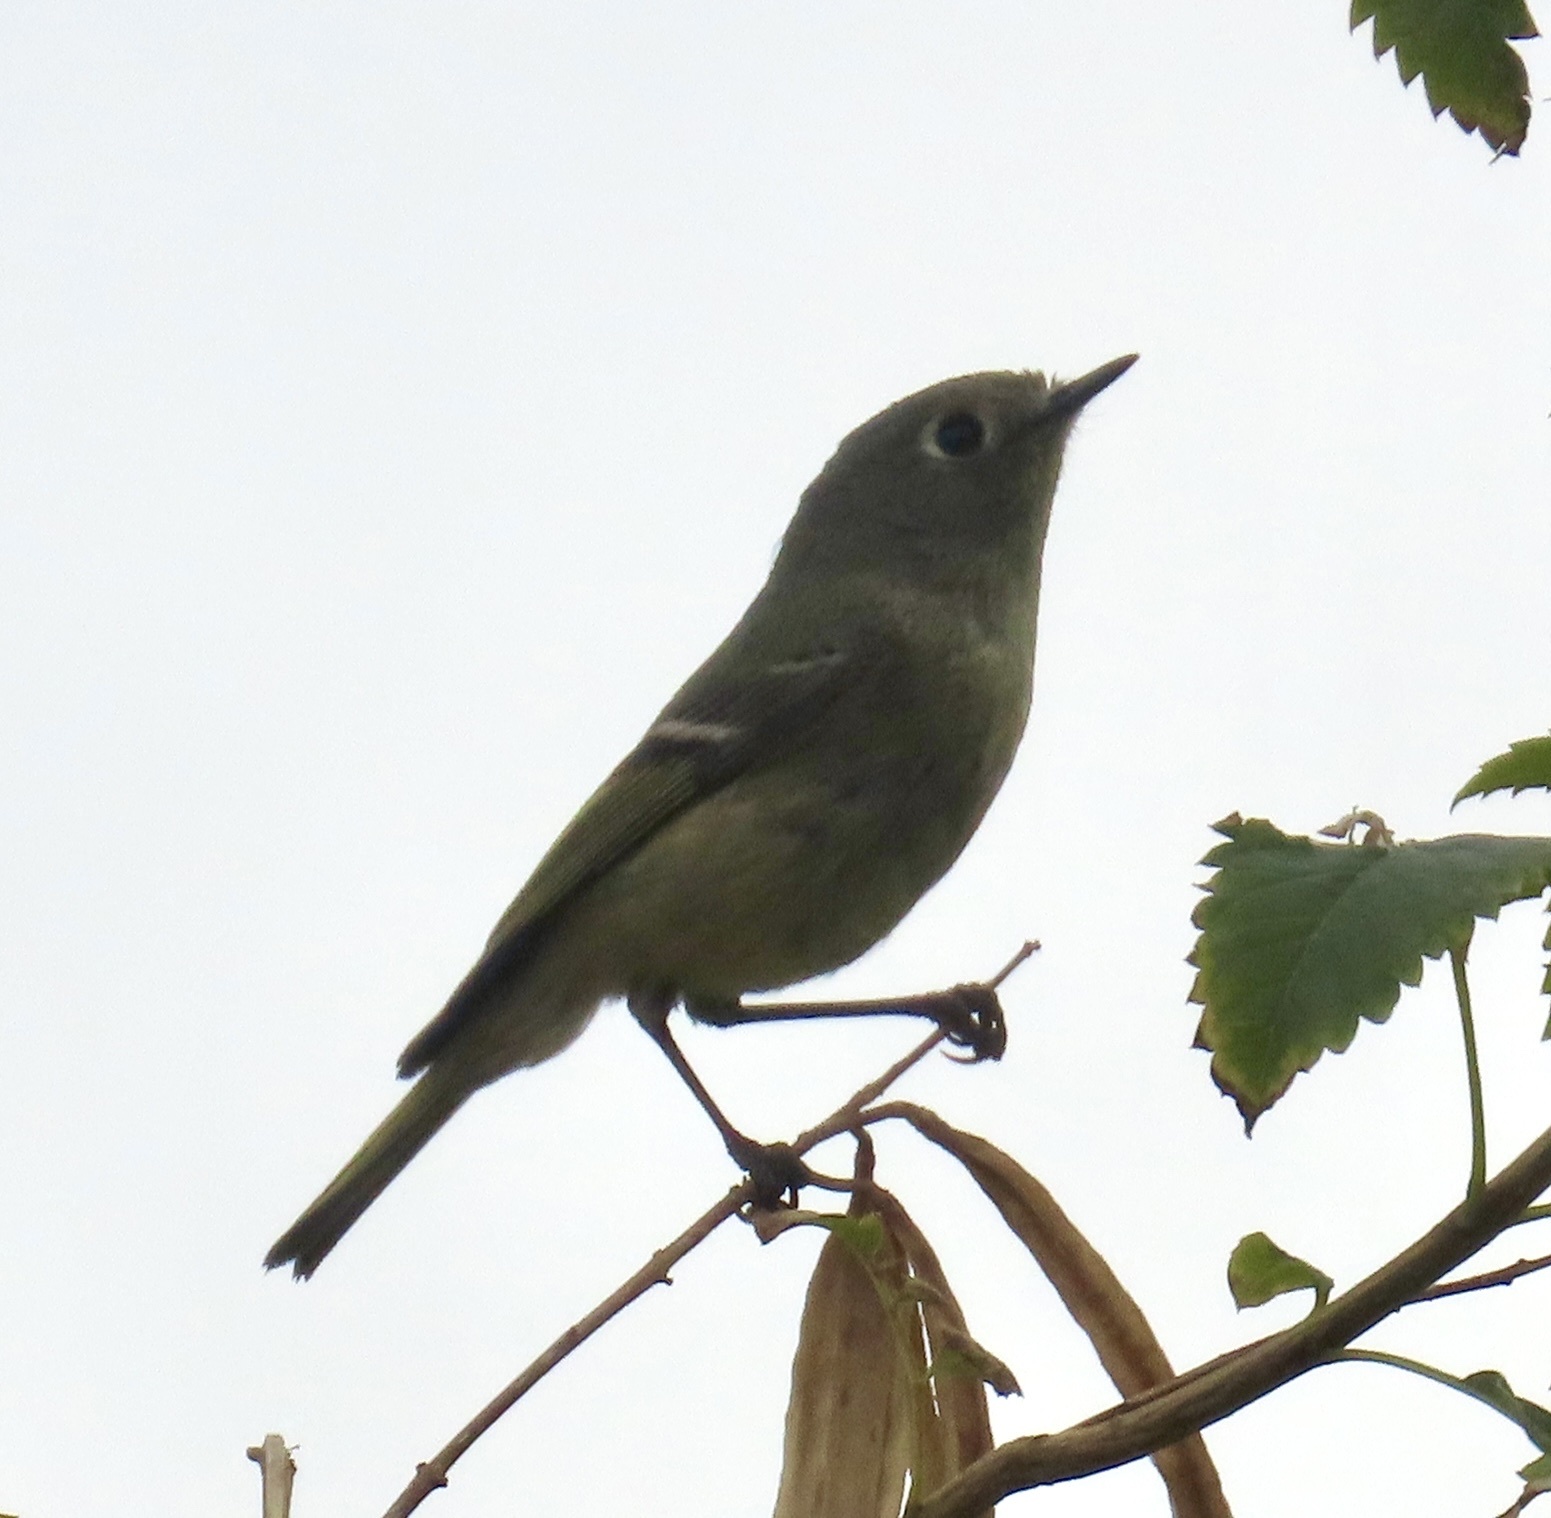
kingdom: Animalia
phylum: Chordata
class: Aves
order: Passeriformes
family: Regulidae
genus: Regulus
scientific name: Regulus calendula
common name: Ruby-crowned kinglet
